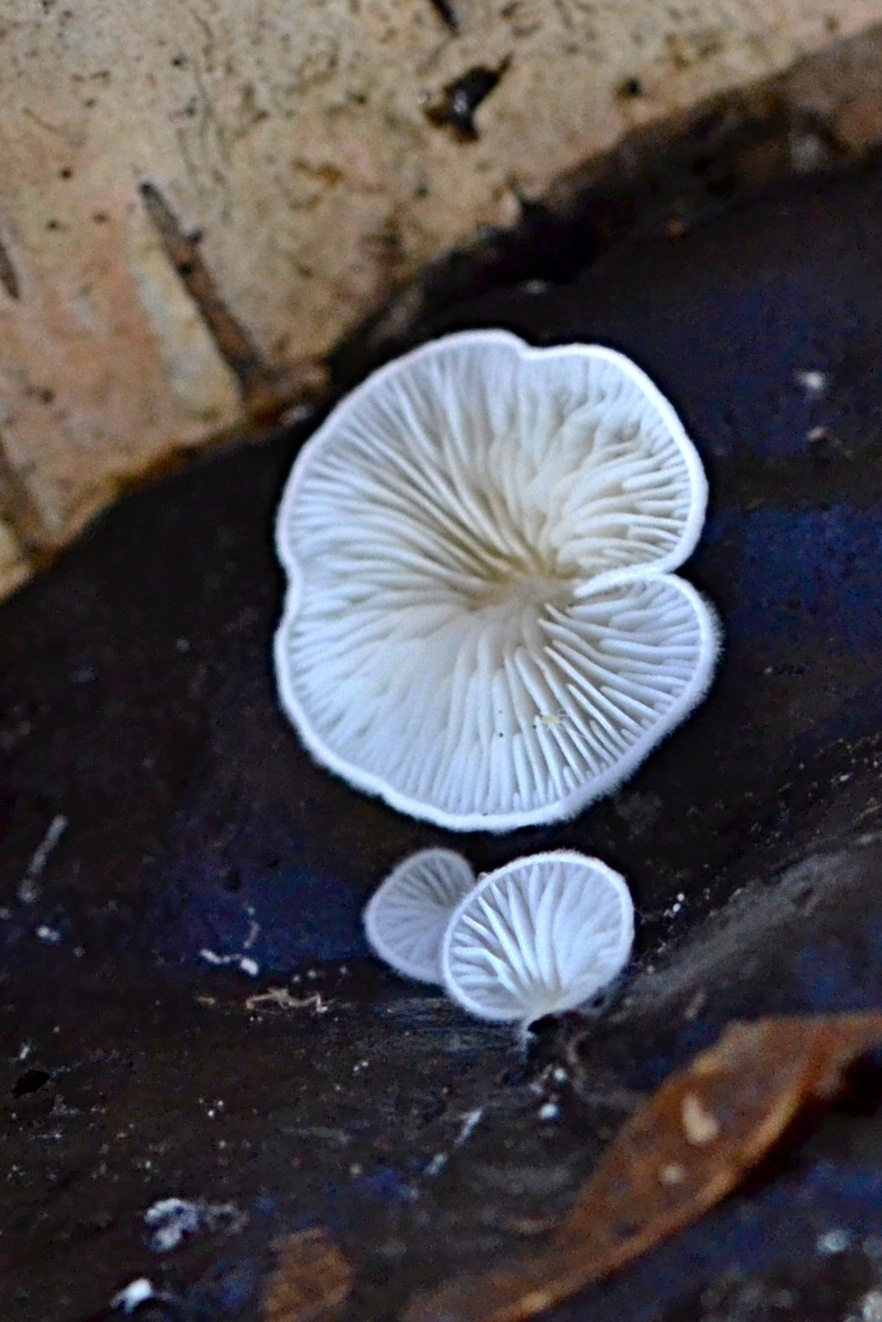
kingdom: Fungi
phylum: Basidiomycota
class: Agaricomycetes
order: Agaricales
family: Crepidotaceae
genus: Crepidotus
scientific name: Crepidotus variabilis
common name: Variable oysterling
